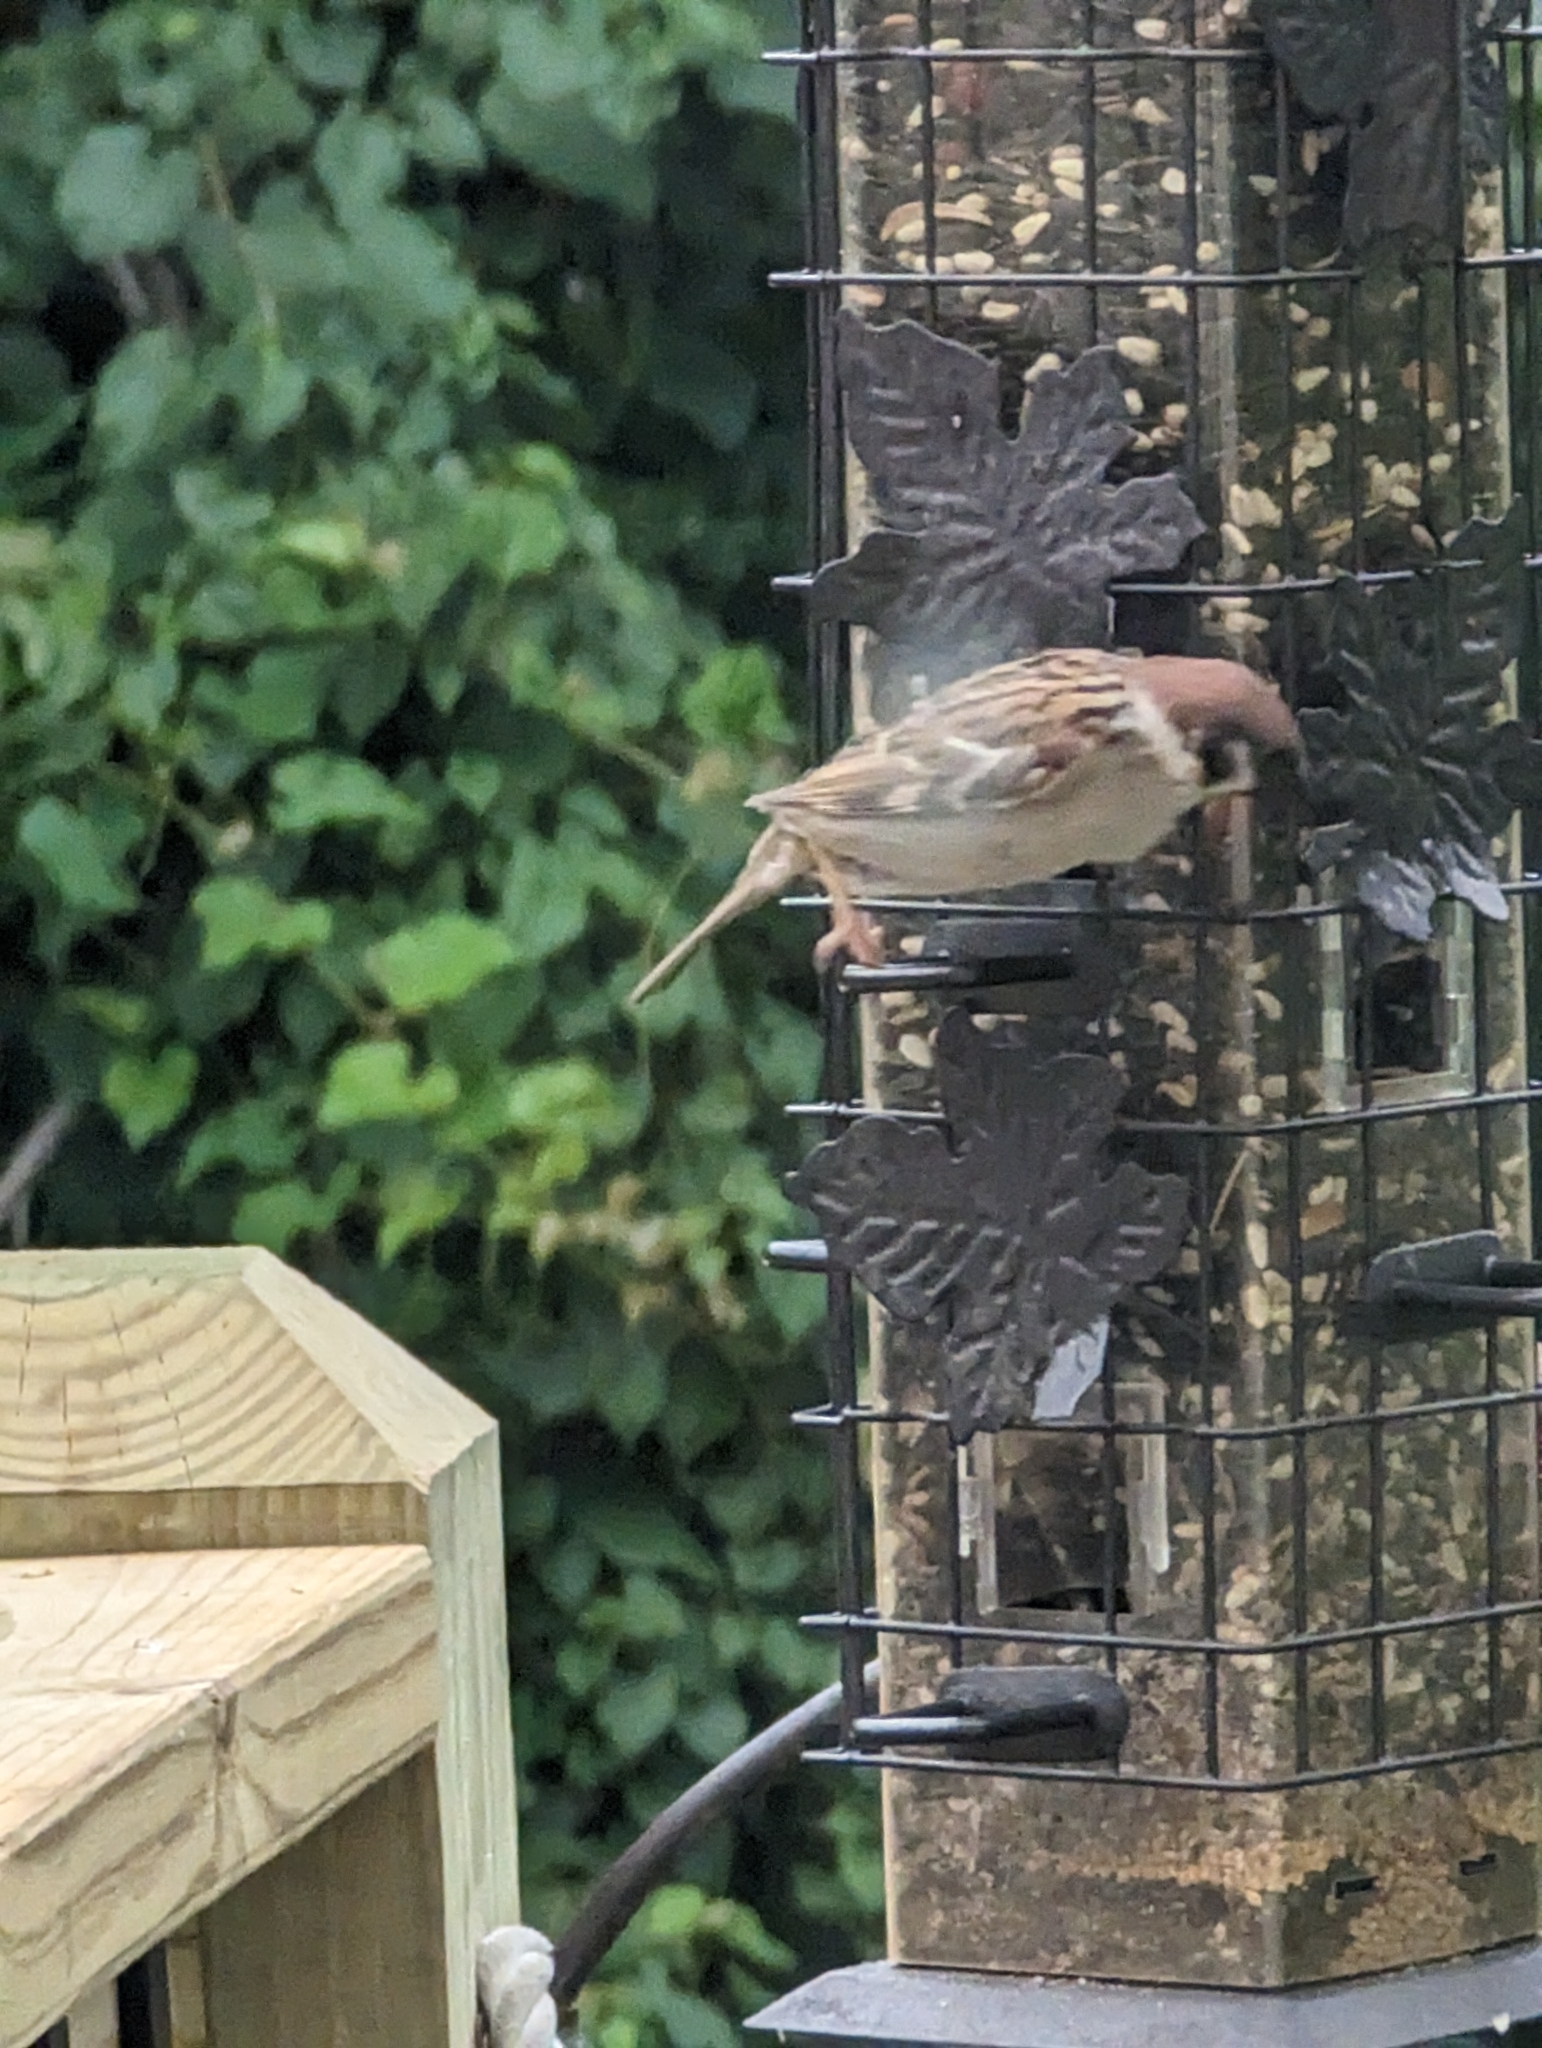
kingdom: Animalia
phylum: Chordata
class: Aves
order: Passeriformes
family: Passeridae
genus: Passer
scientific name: Passer montanus
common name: Eurasian tree sparrow
